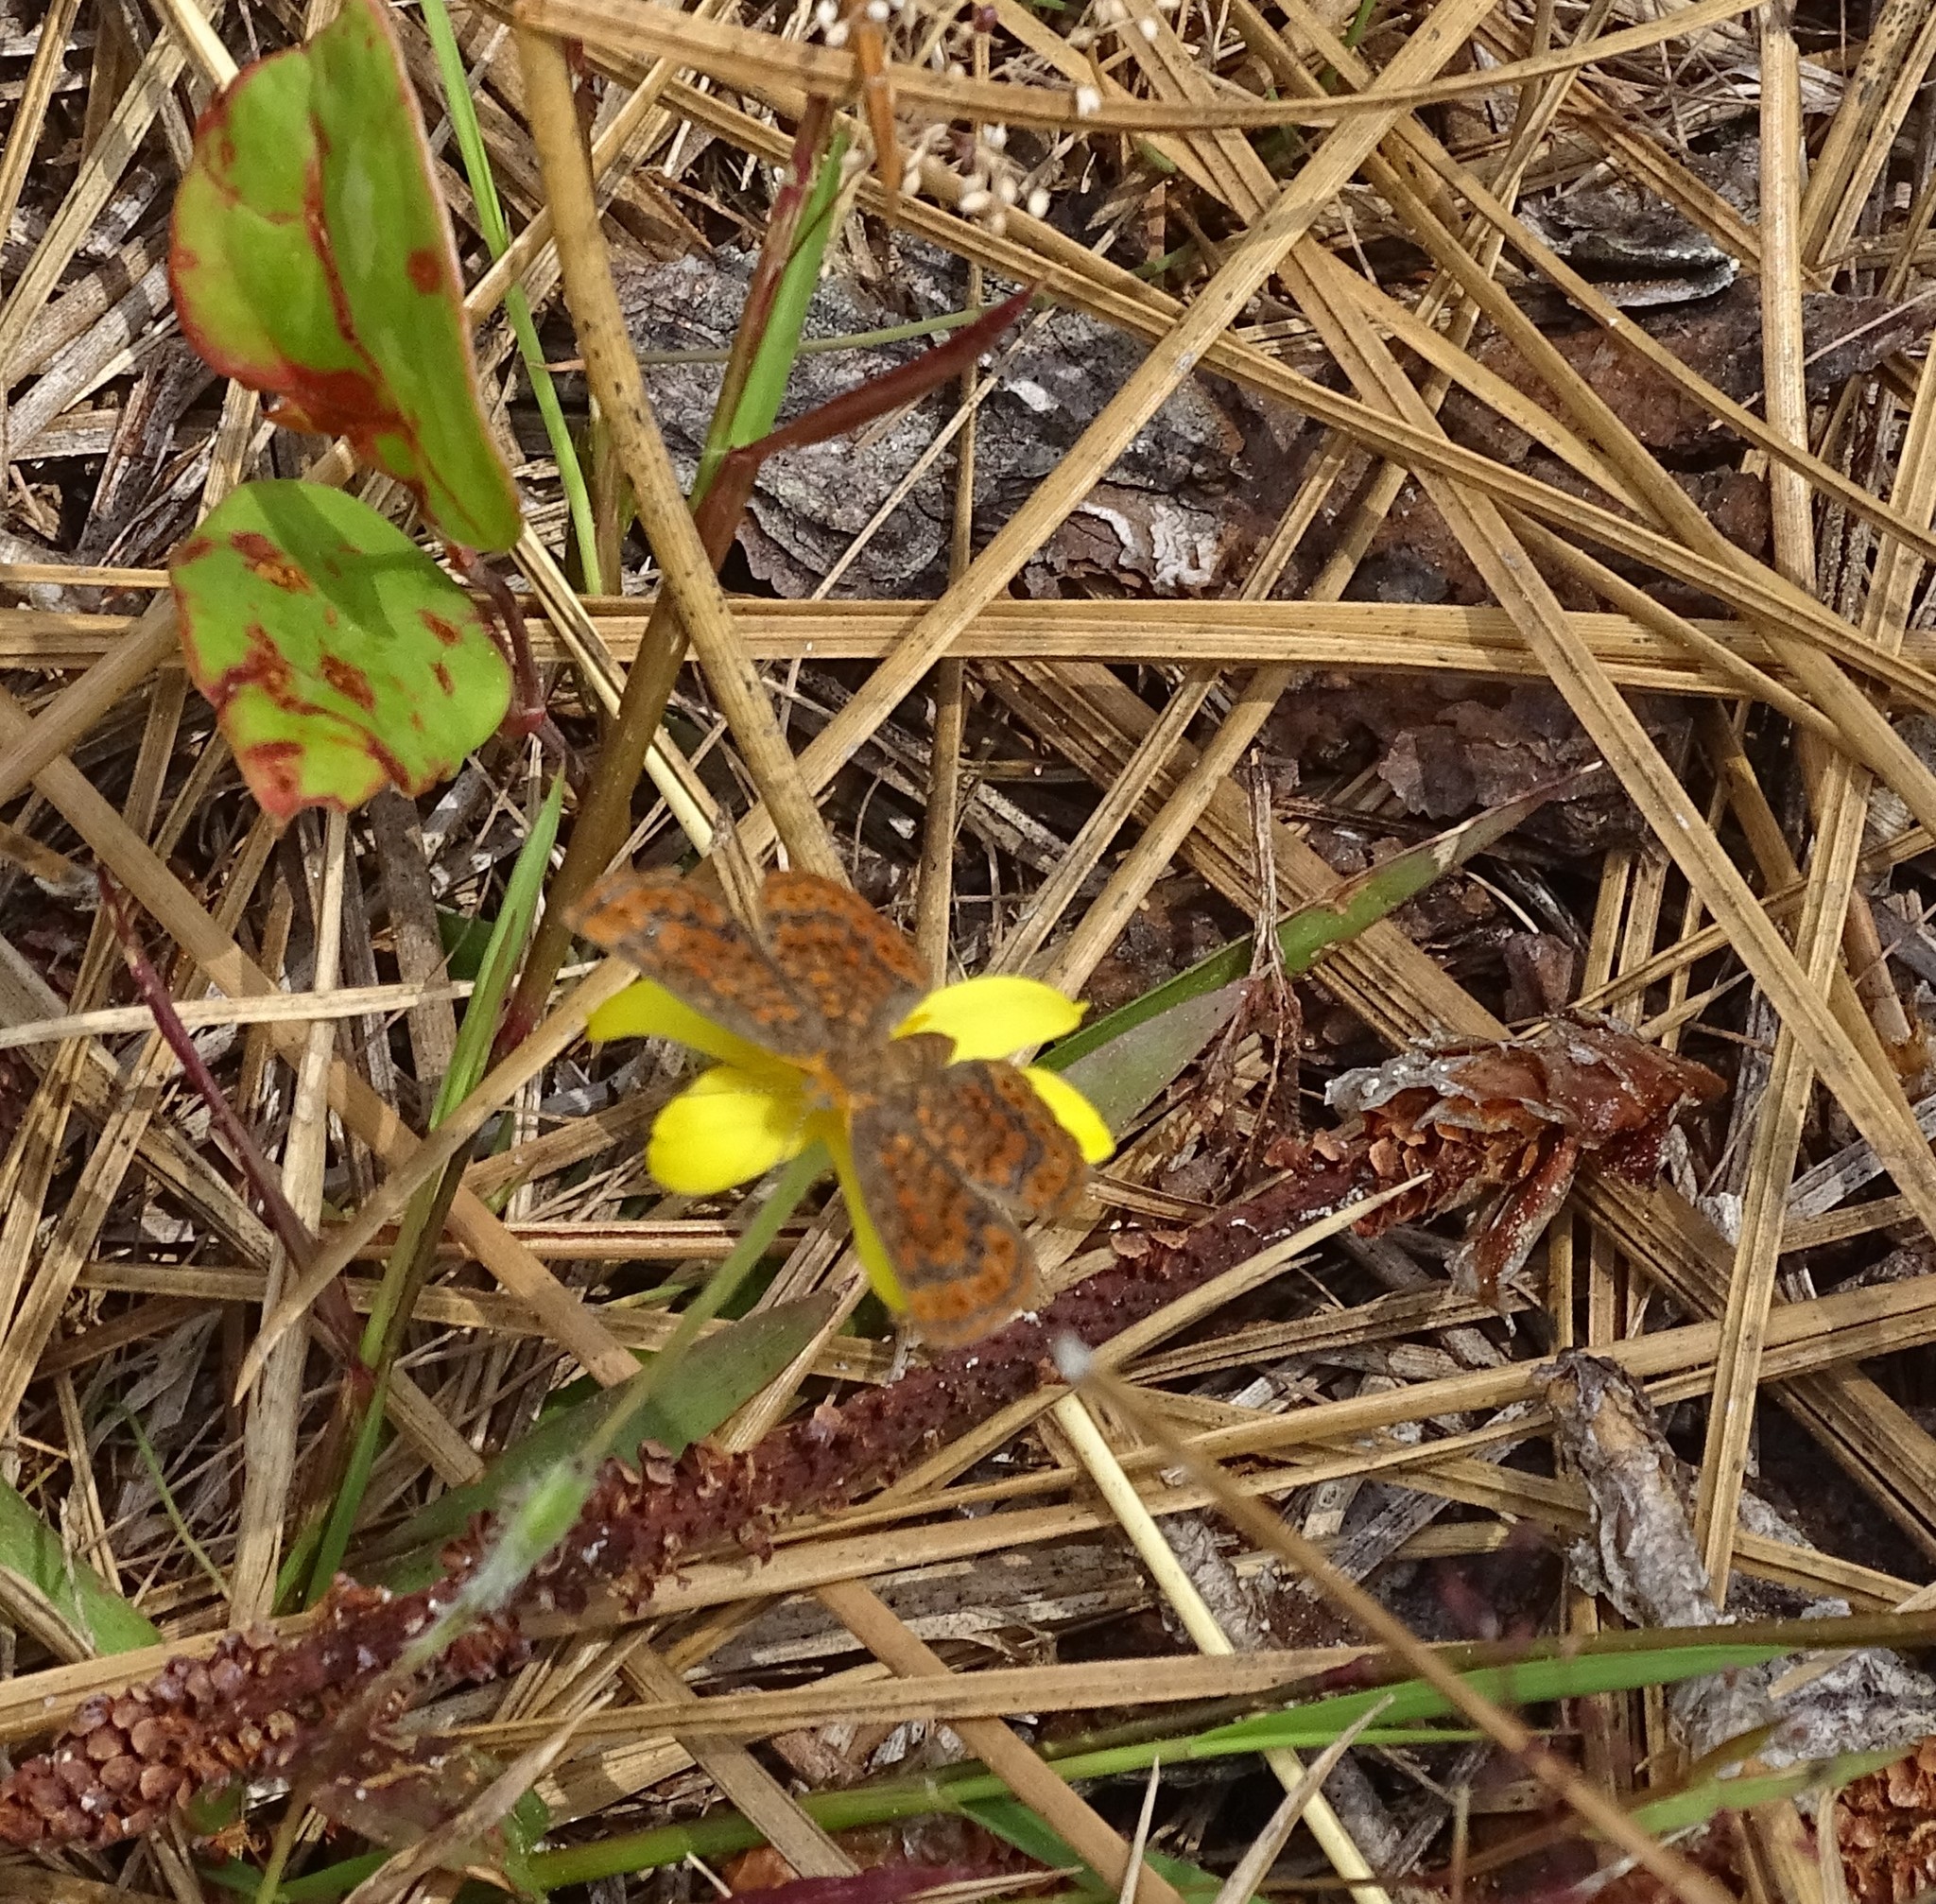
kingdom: Animalia
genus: Calephelis
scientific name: Calephelis virginiensis
